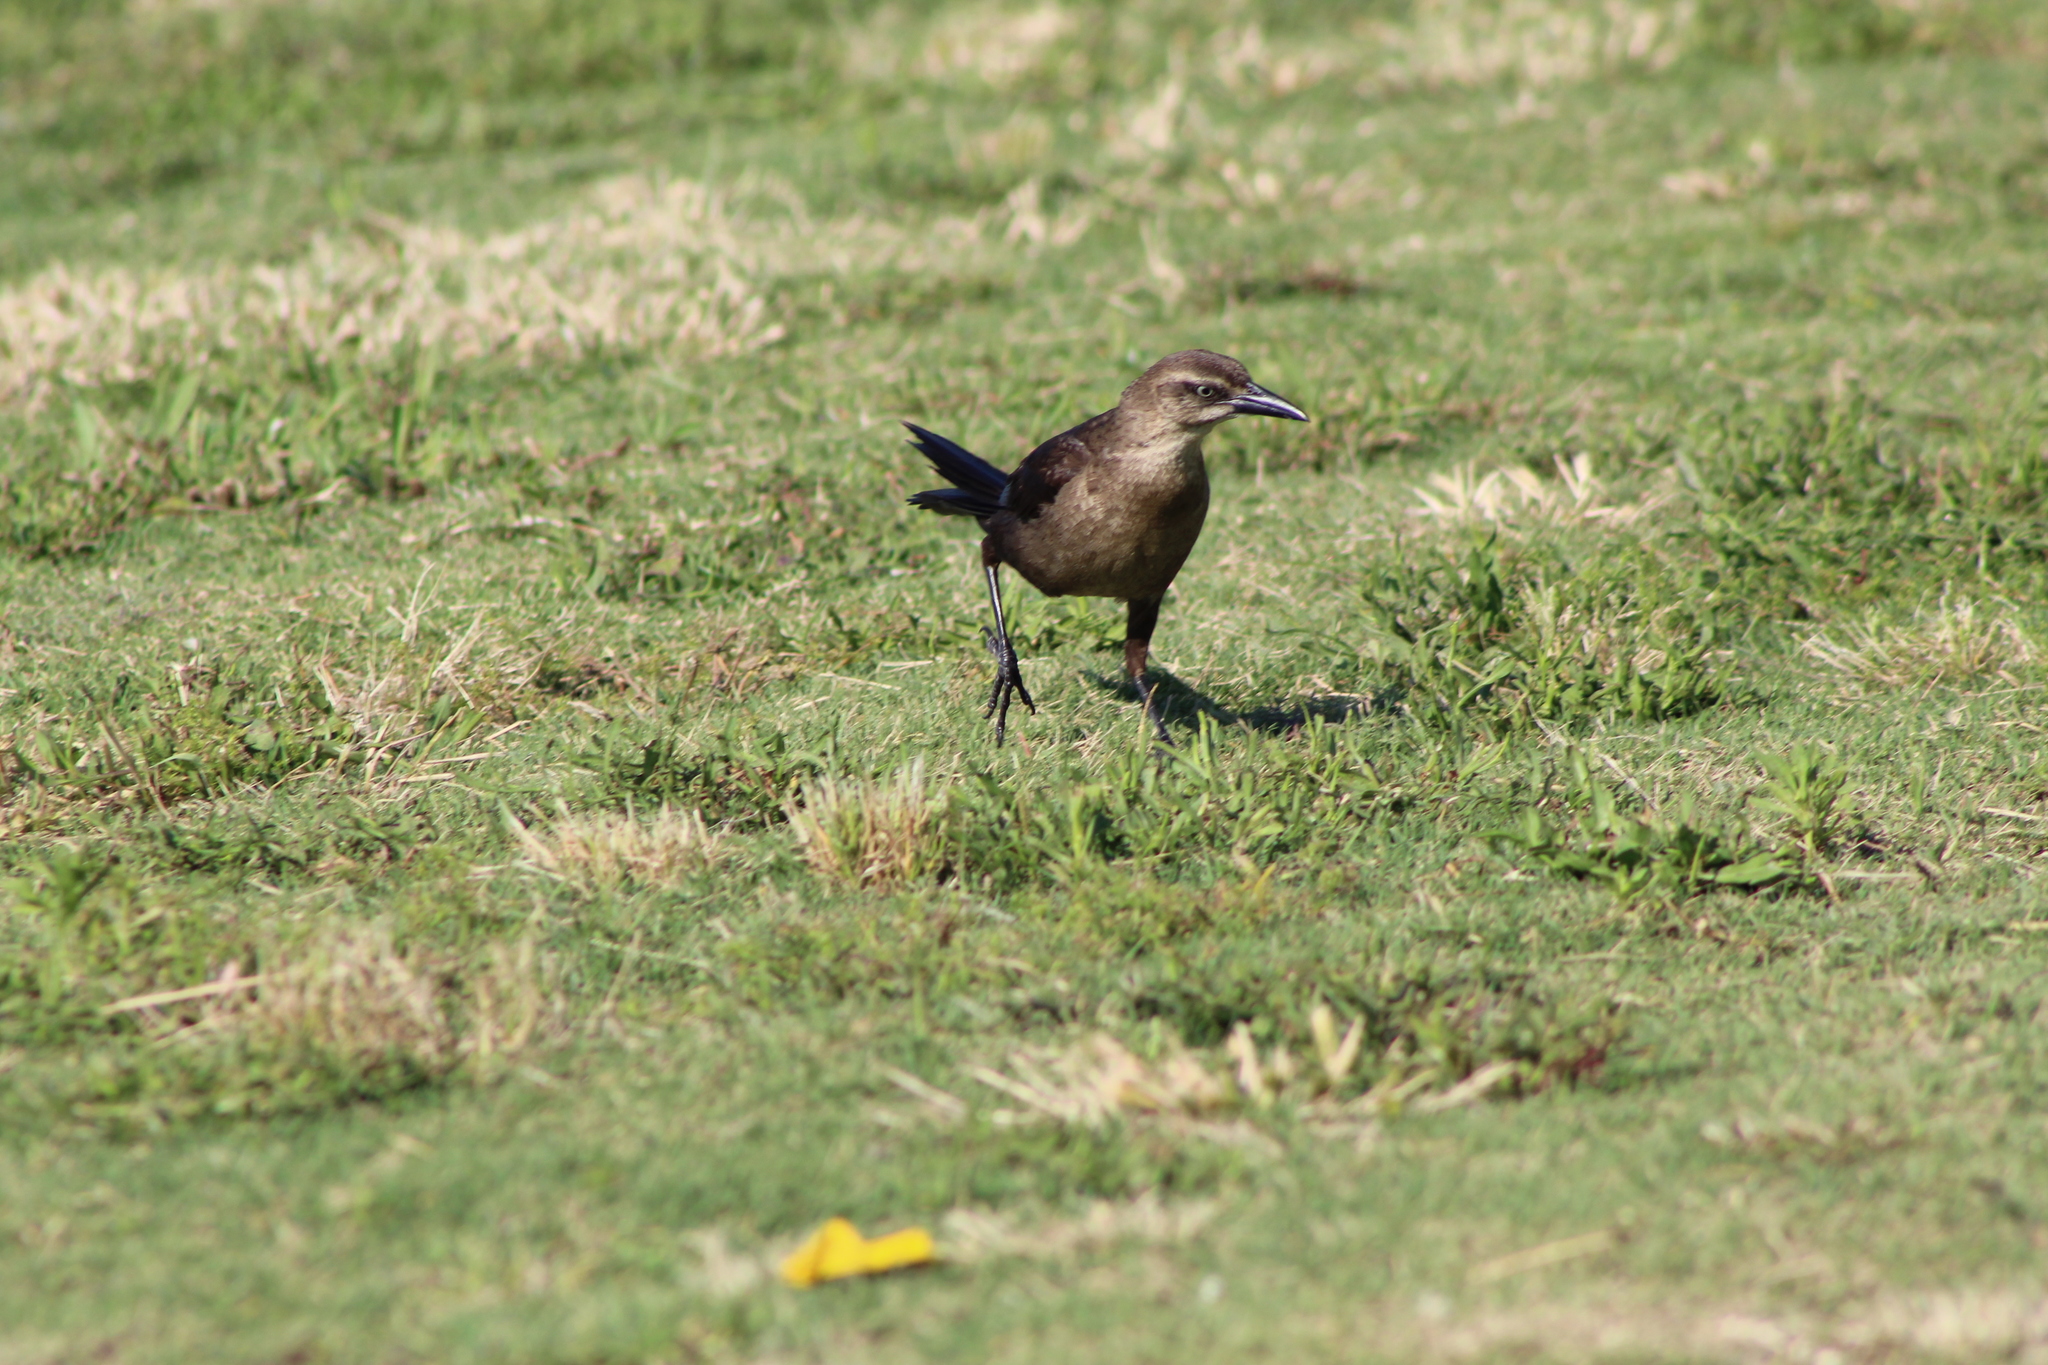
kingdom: Animalia
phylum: Chordata
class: Aves
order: Passeriformes
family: Icteridae
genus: Quiscalus
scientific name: Quiscalus mexicanus
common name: Great-tailed grackle
